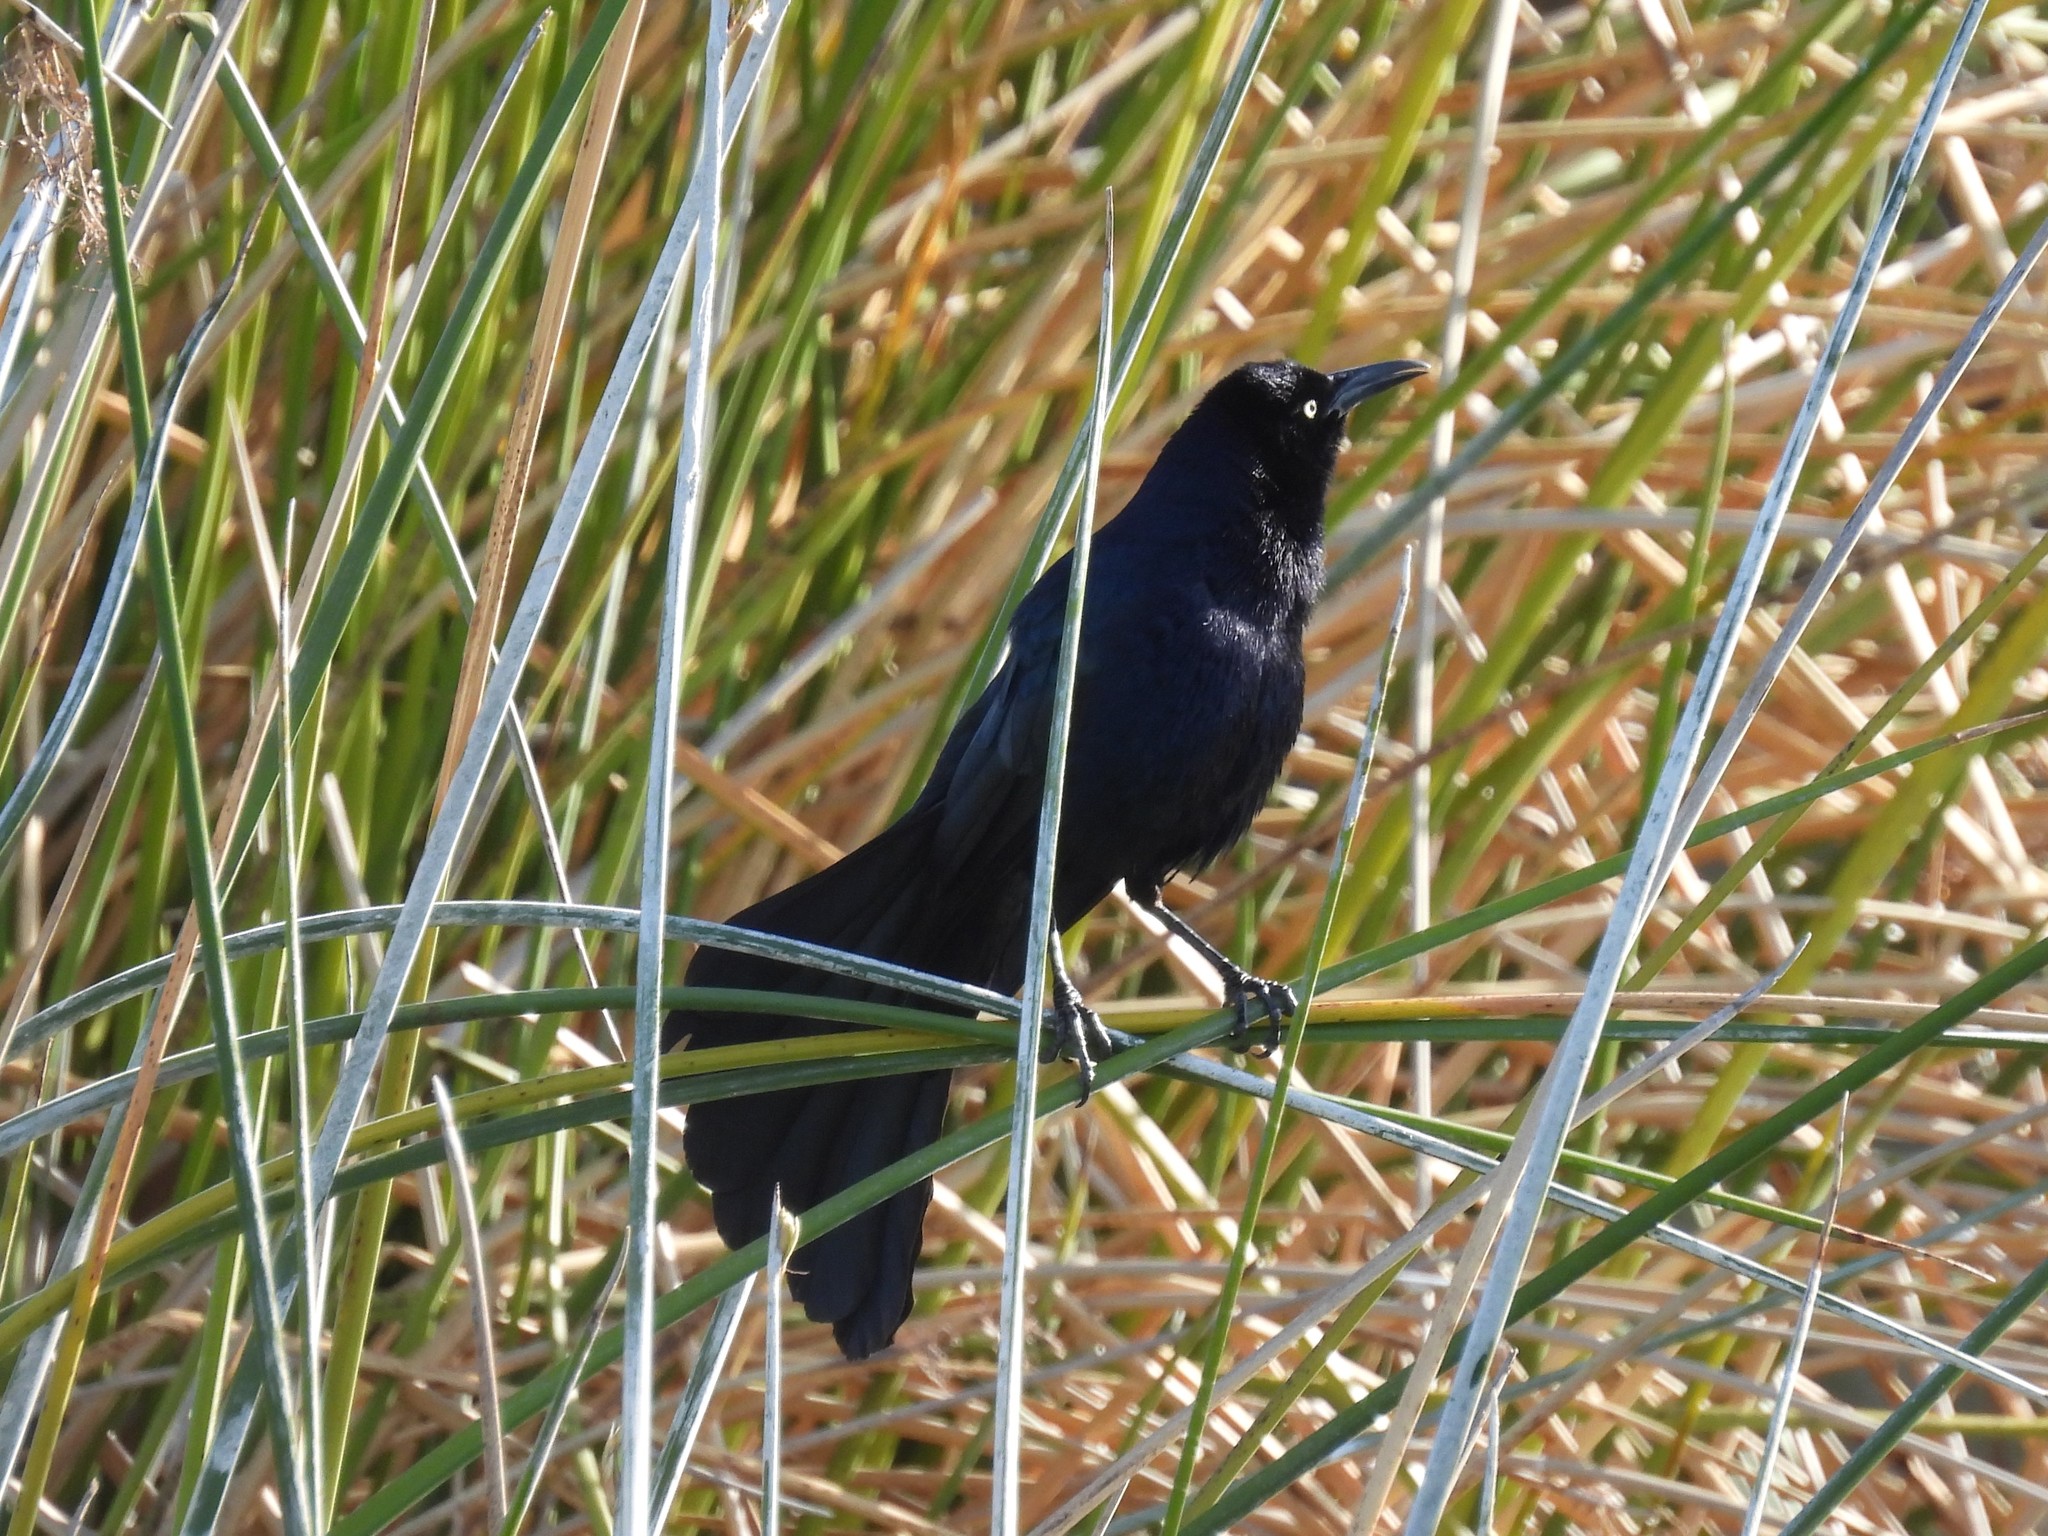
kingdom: Animalia
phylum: Chordata
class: Aves
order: Passeriformes
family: Icteridae
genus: Quiscalus
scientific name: Quiscalus mexicanus
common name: Great-tailed grackle
